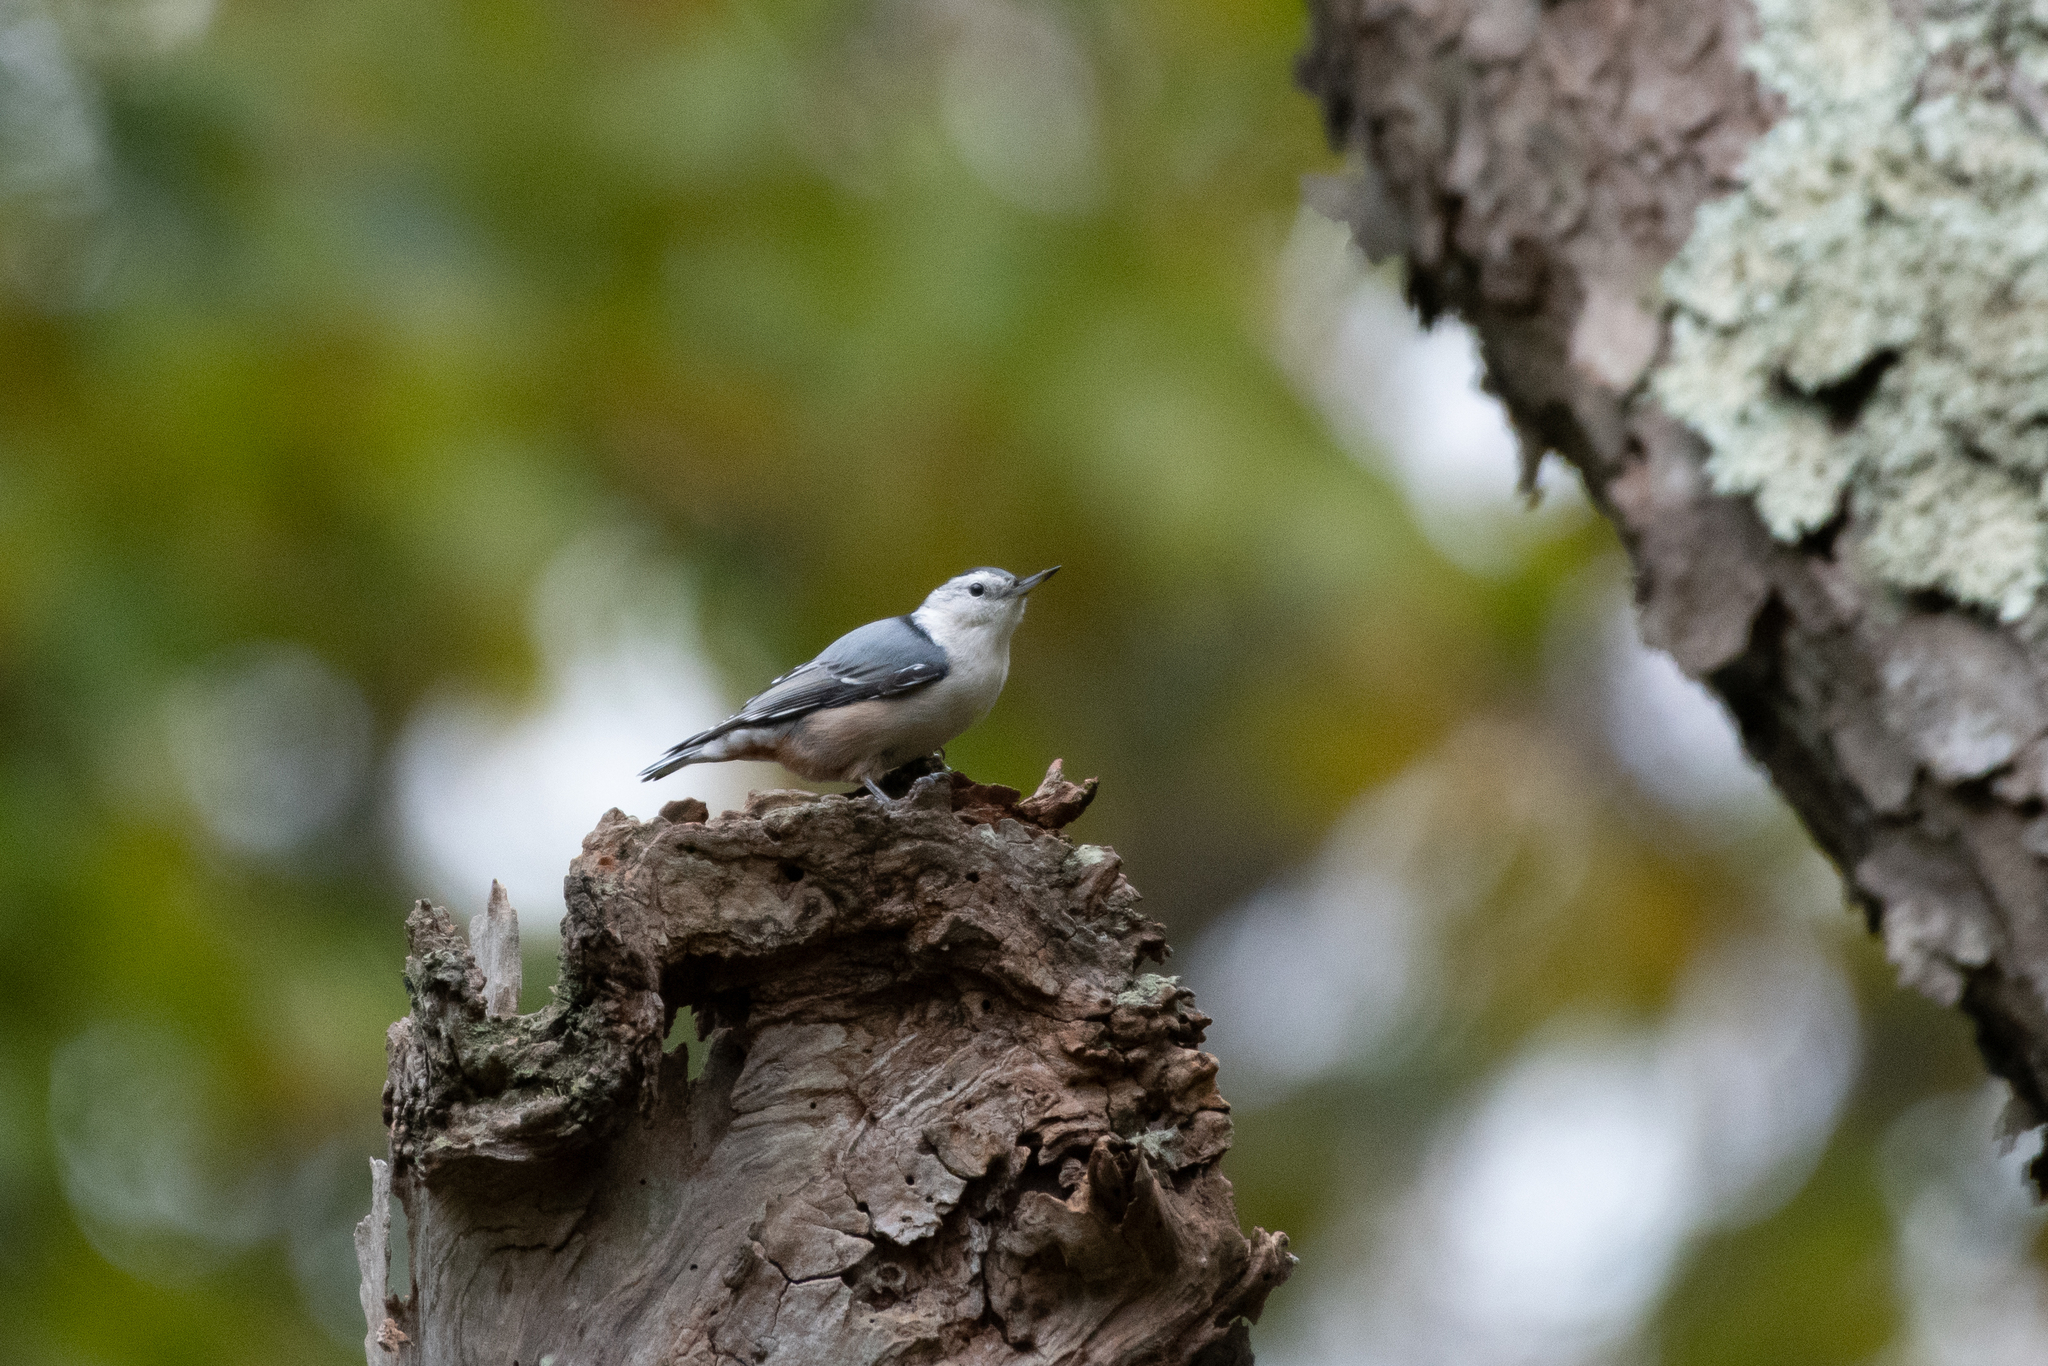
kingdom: Animalia
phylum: Chordata
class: Aves
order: Passeriformes
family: Sittidae
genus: Sitta
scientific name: Sitta carolinensis
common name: White-breasted nuthatch
